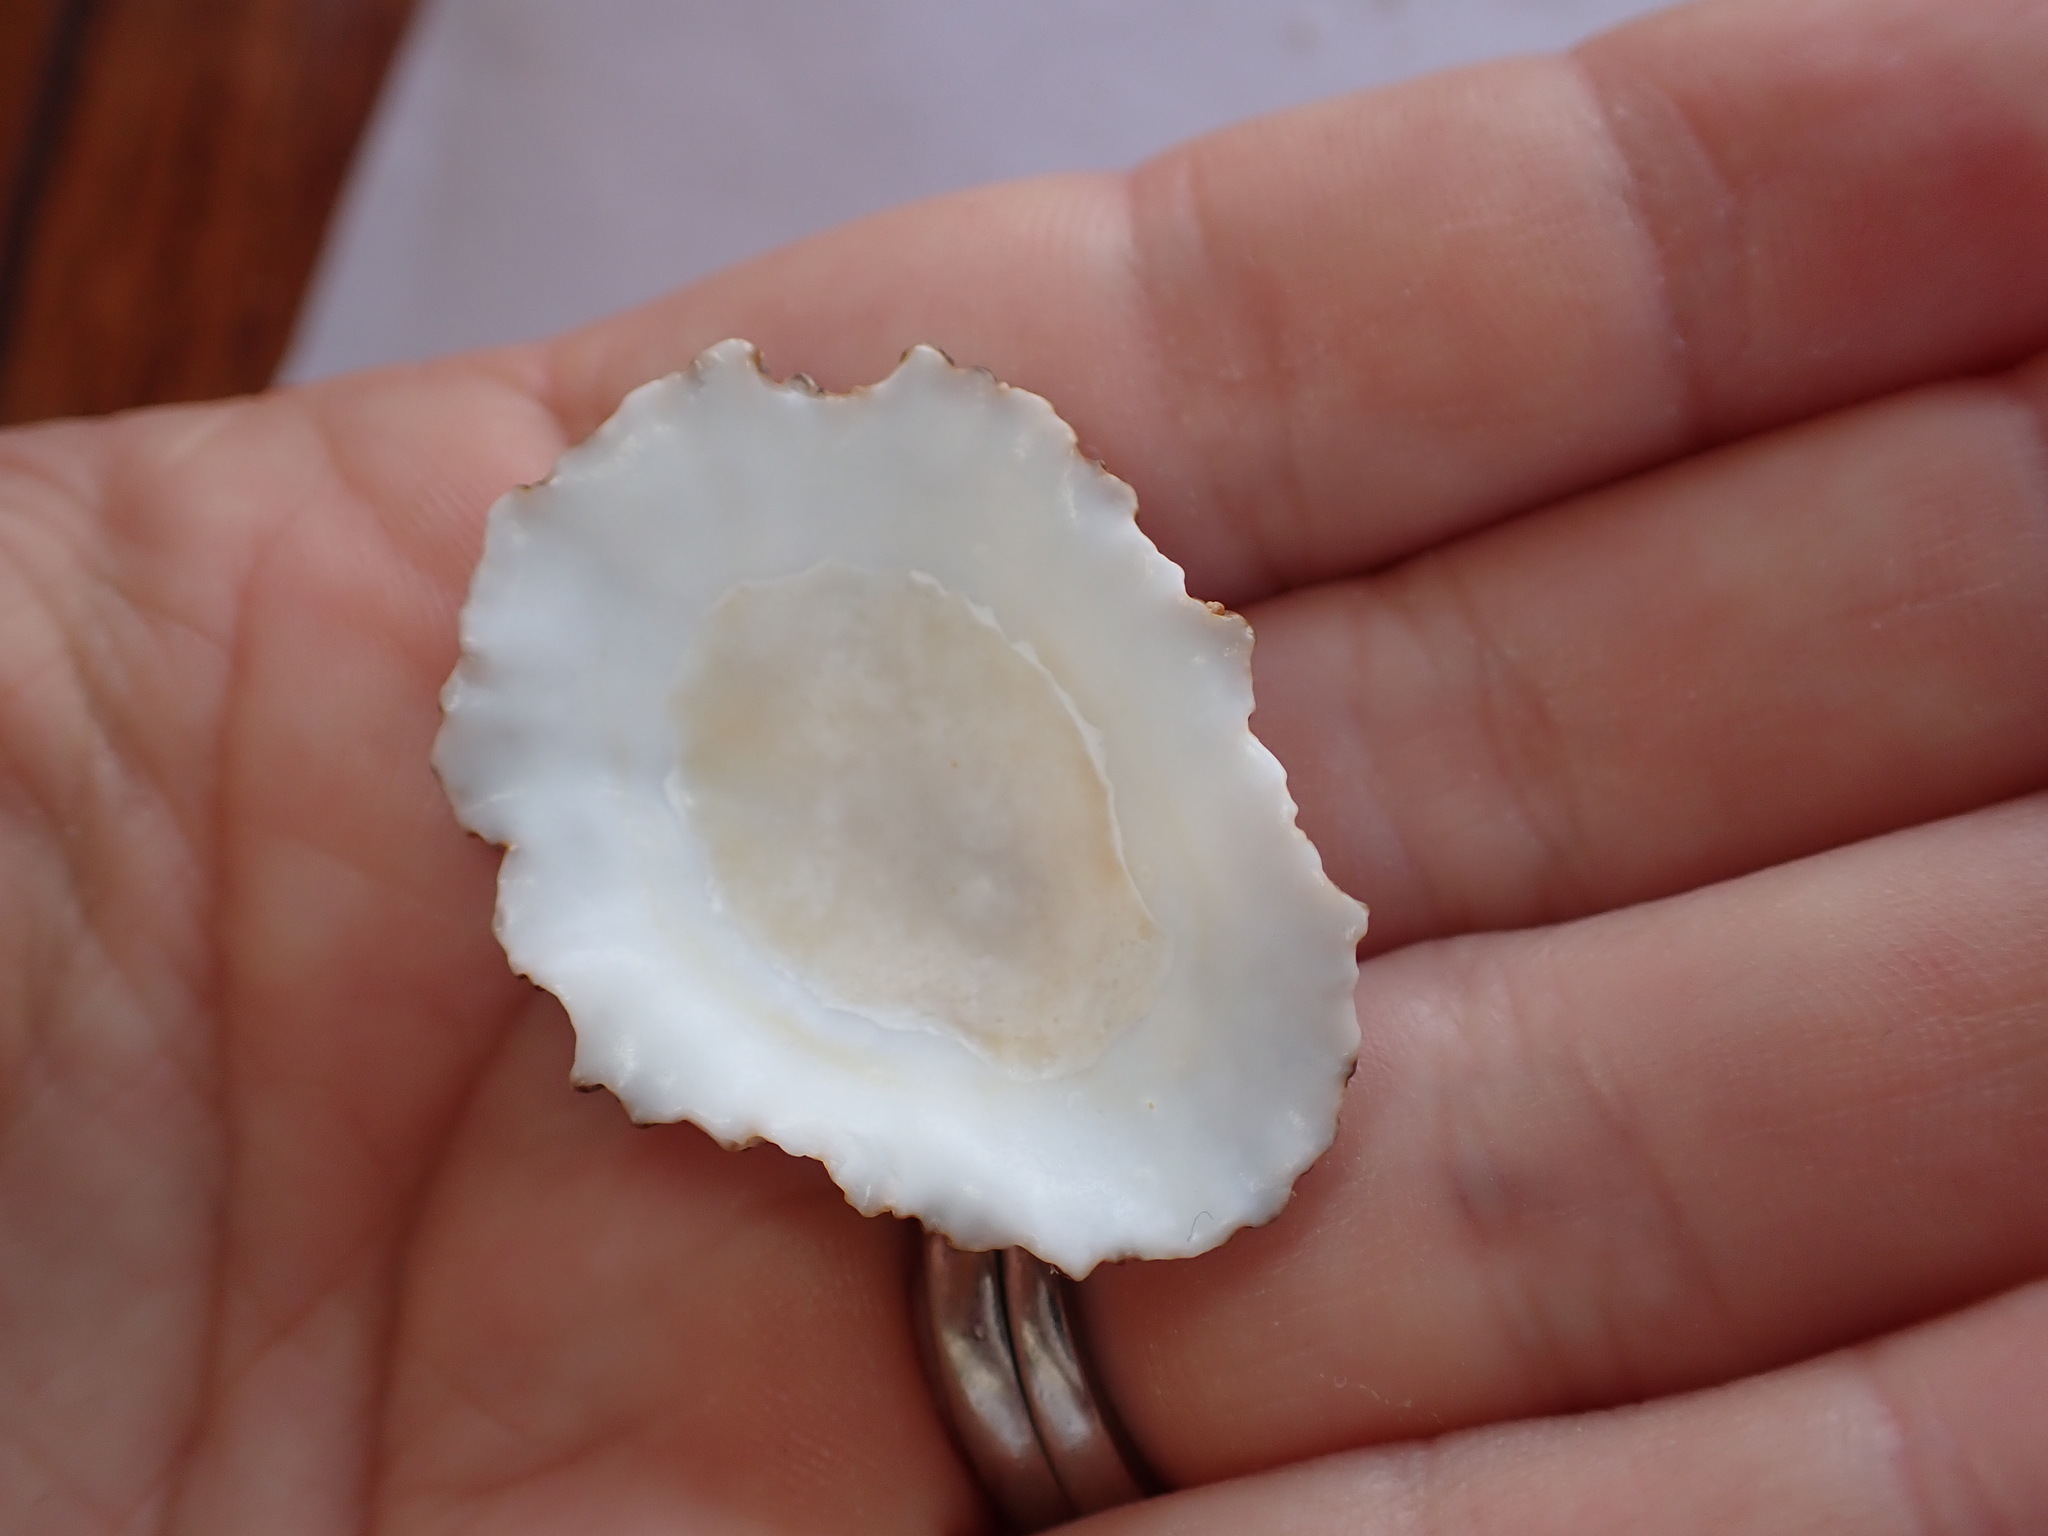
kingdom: Animalia
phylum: Mollusca
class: Gastropoda
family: Patellidae
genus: Patella
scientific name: Patella aspera
